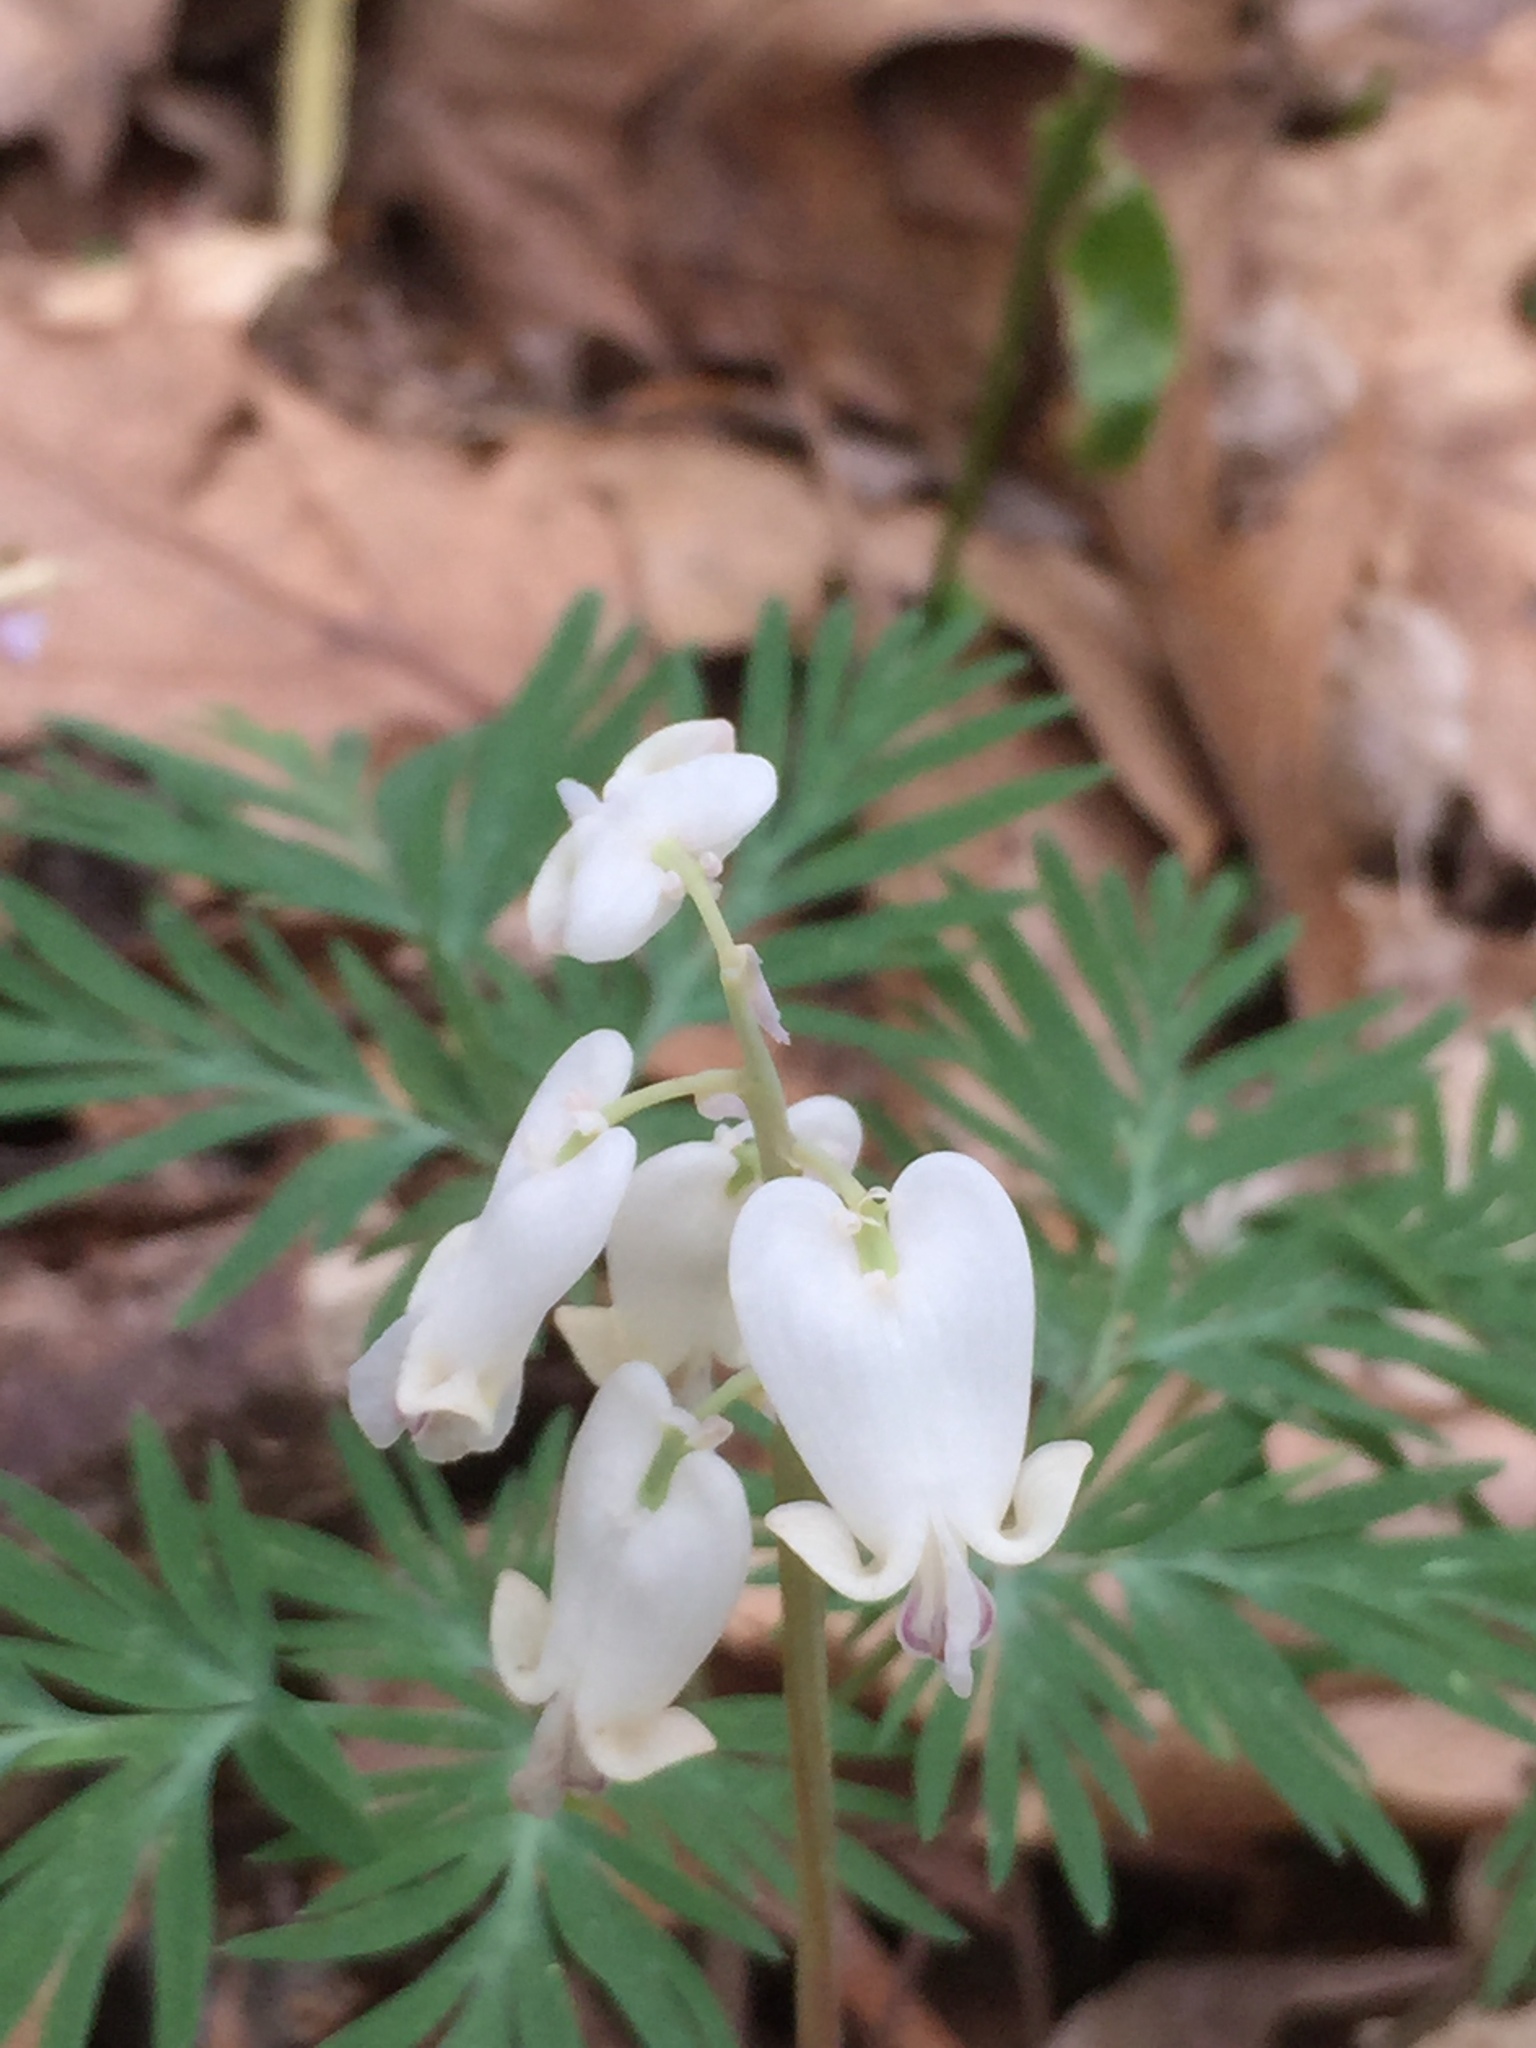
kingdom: Plantae
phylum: Tracheophyta
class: Magnoliopsida
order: Ranunculales
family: Papaveraceae
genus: Dicentra
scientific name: Dicentra canadensis
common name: Squirrel-corn
